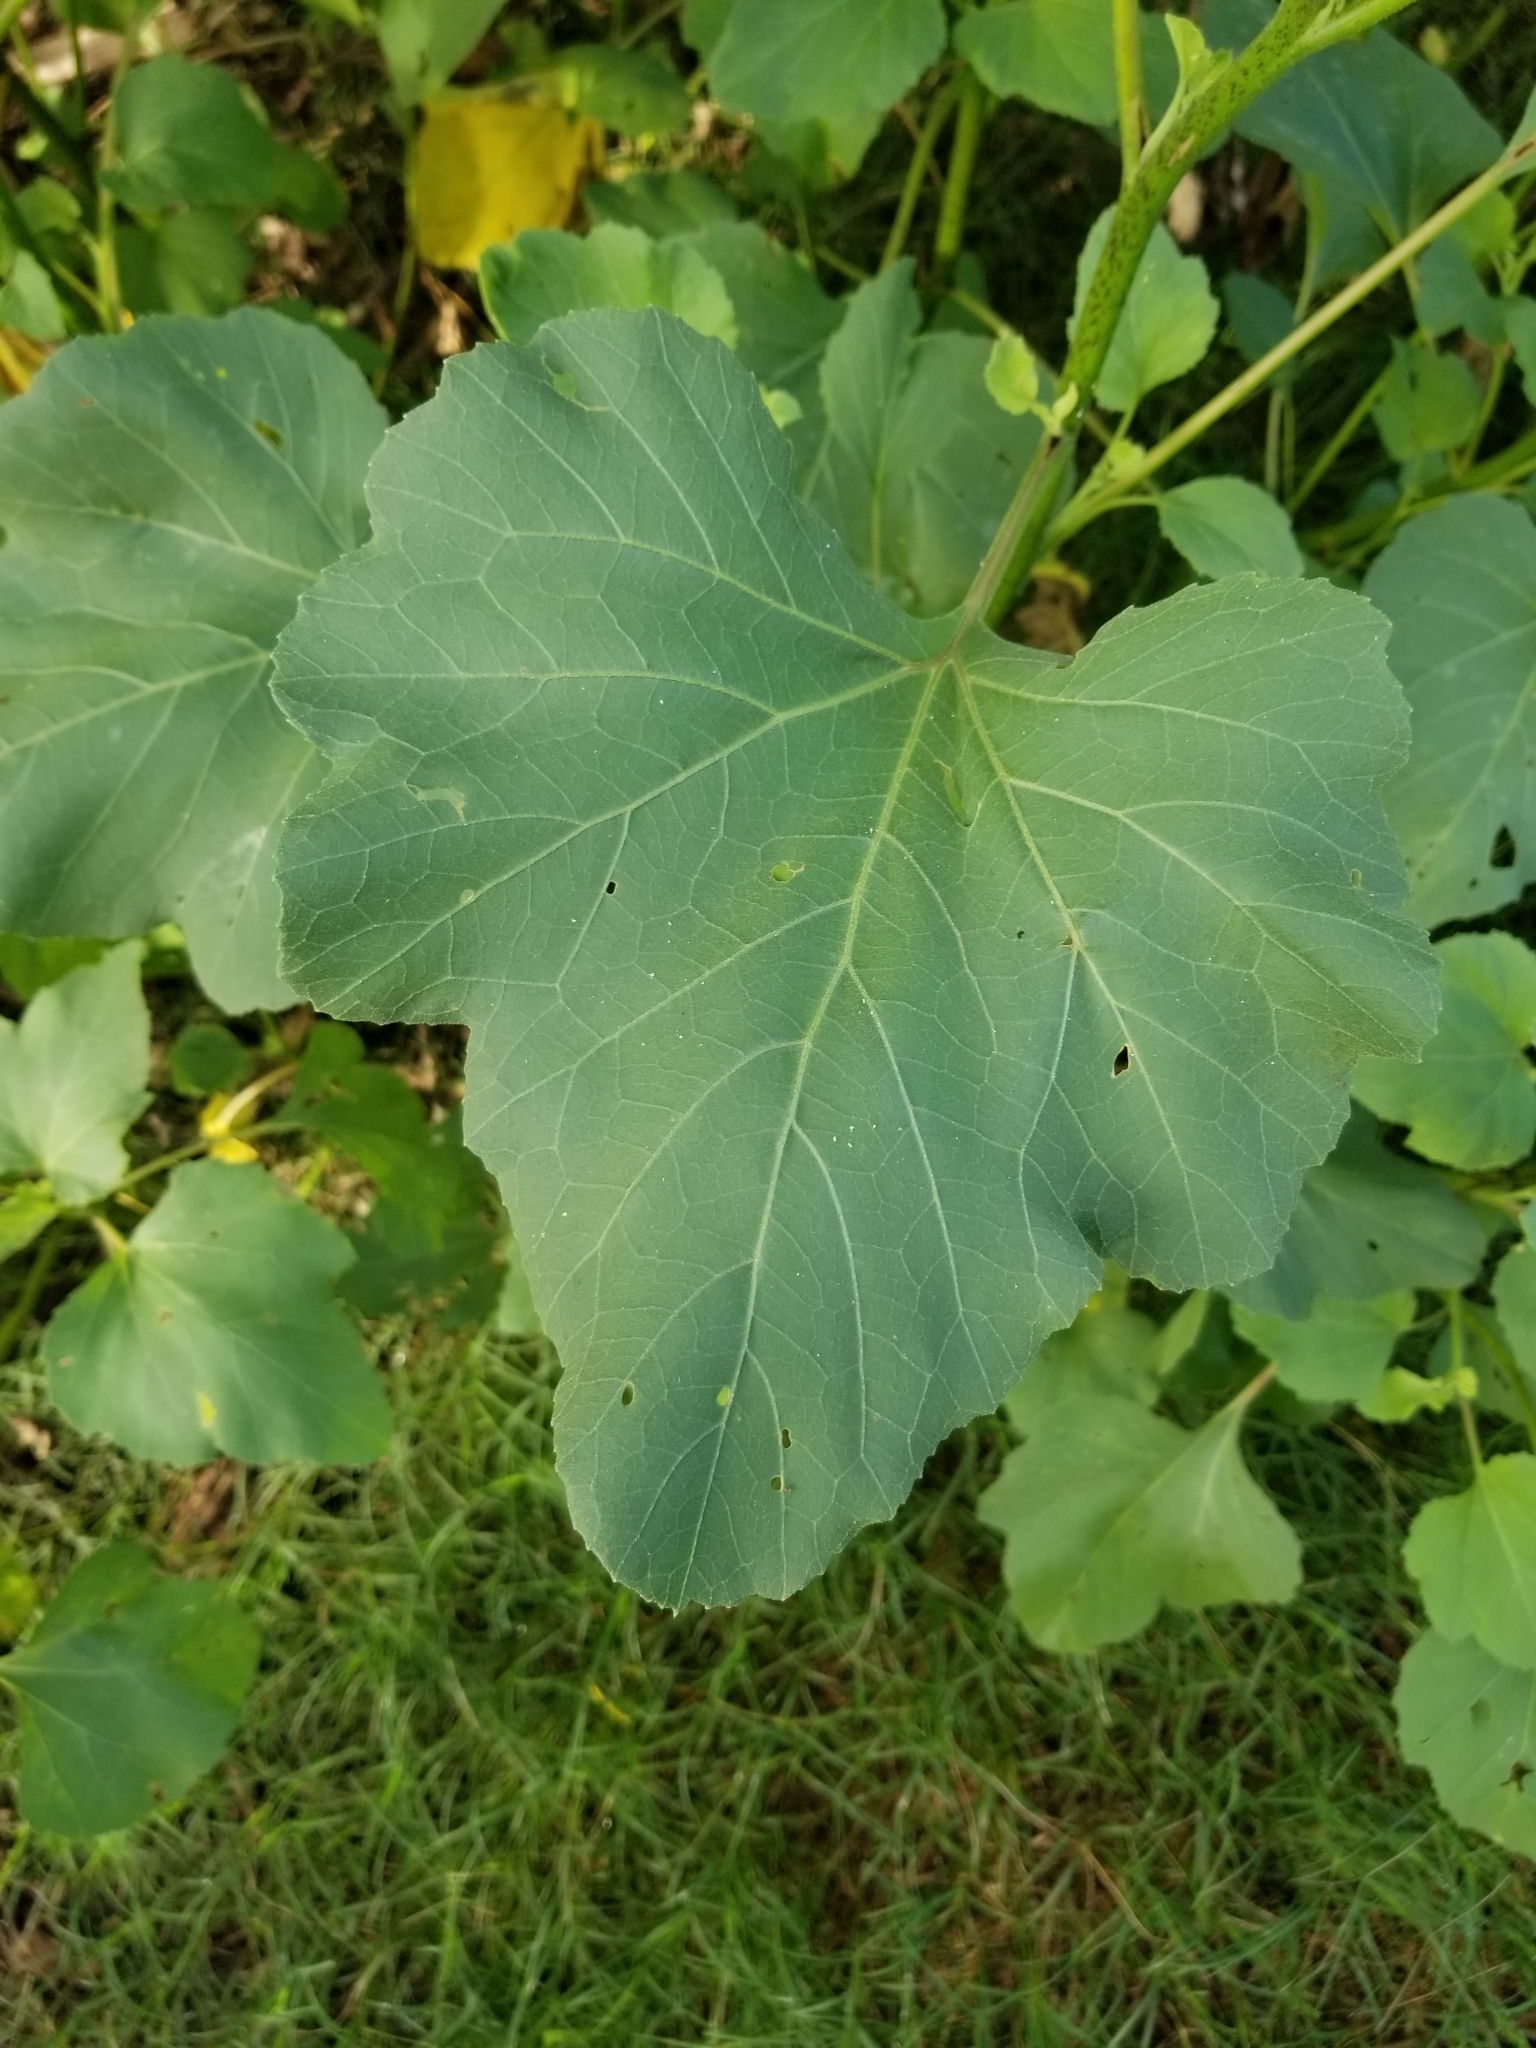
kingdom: Plantae
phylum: Tracheophyta
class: Magnoliopsida
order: Asterales
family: Asteraceae
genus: Xanthium
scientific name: Xanthium strumarium
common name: Rough cocklebur
